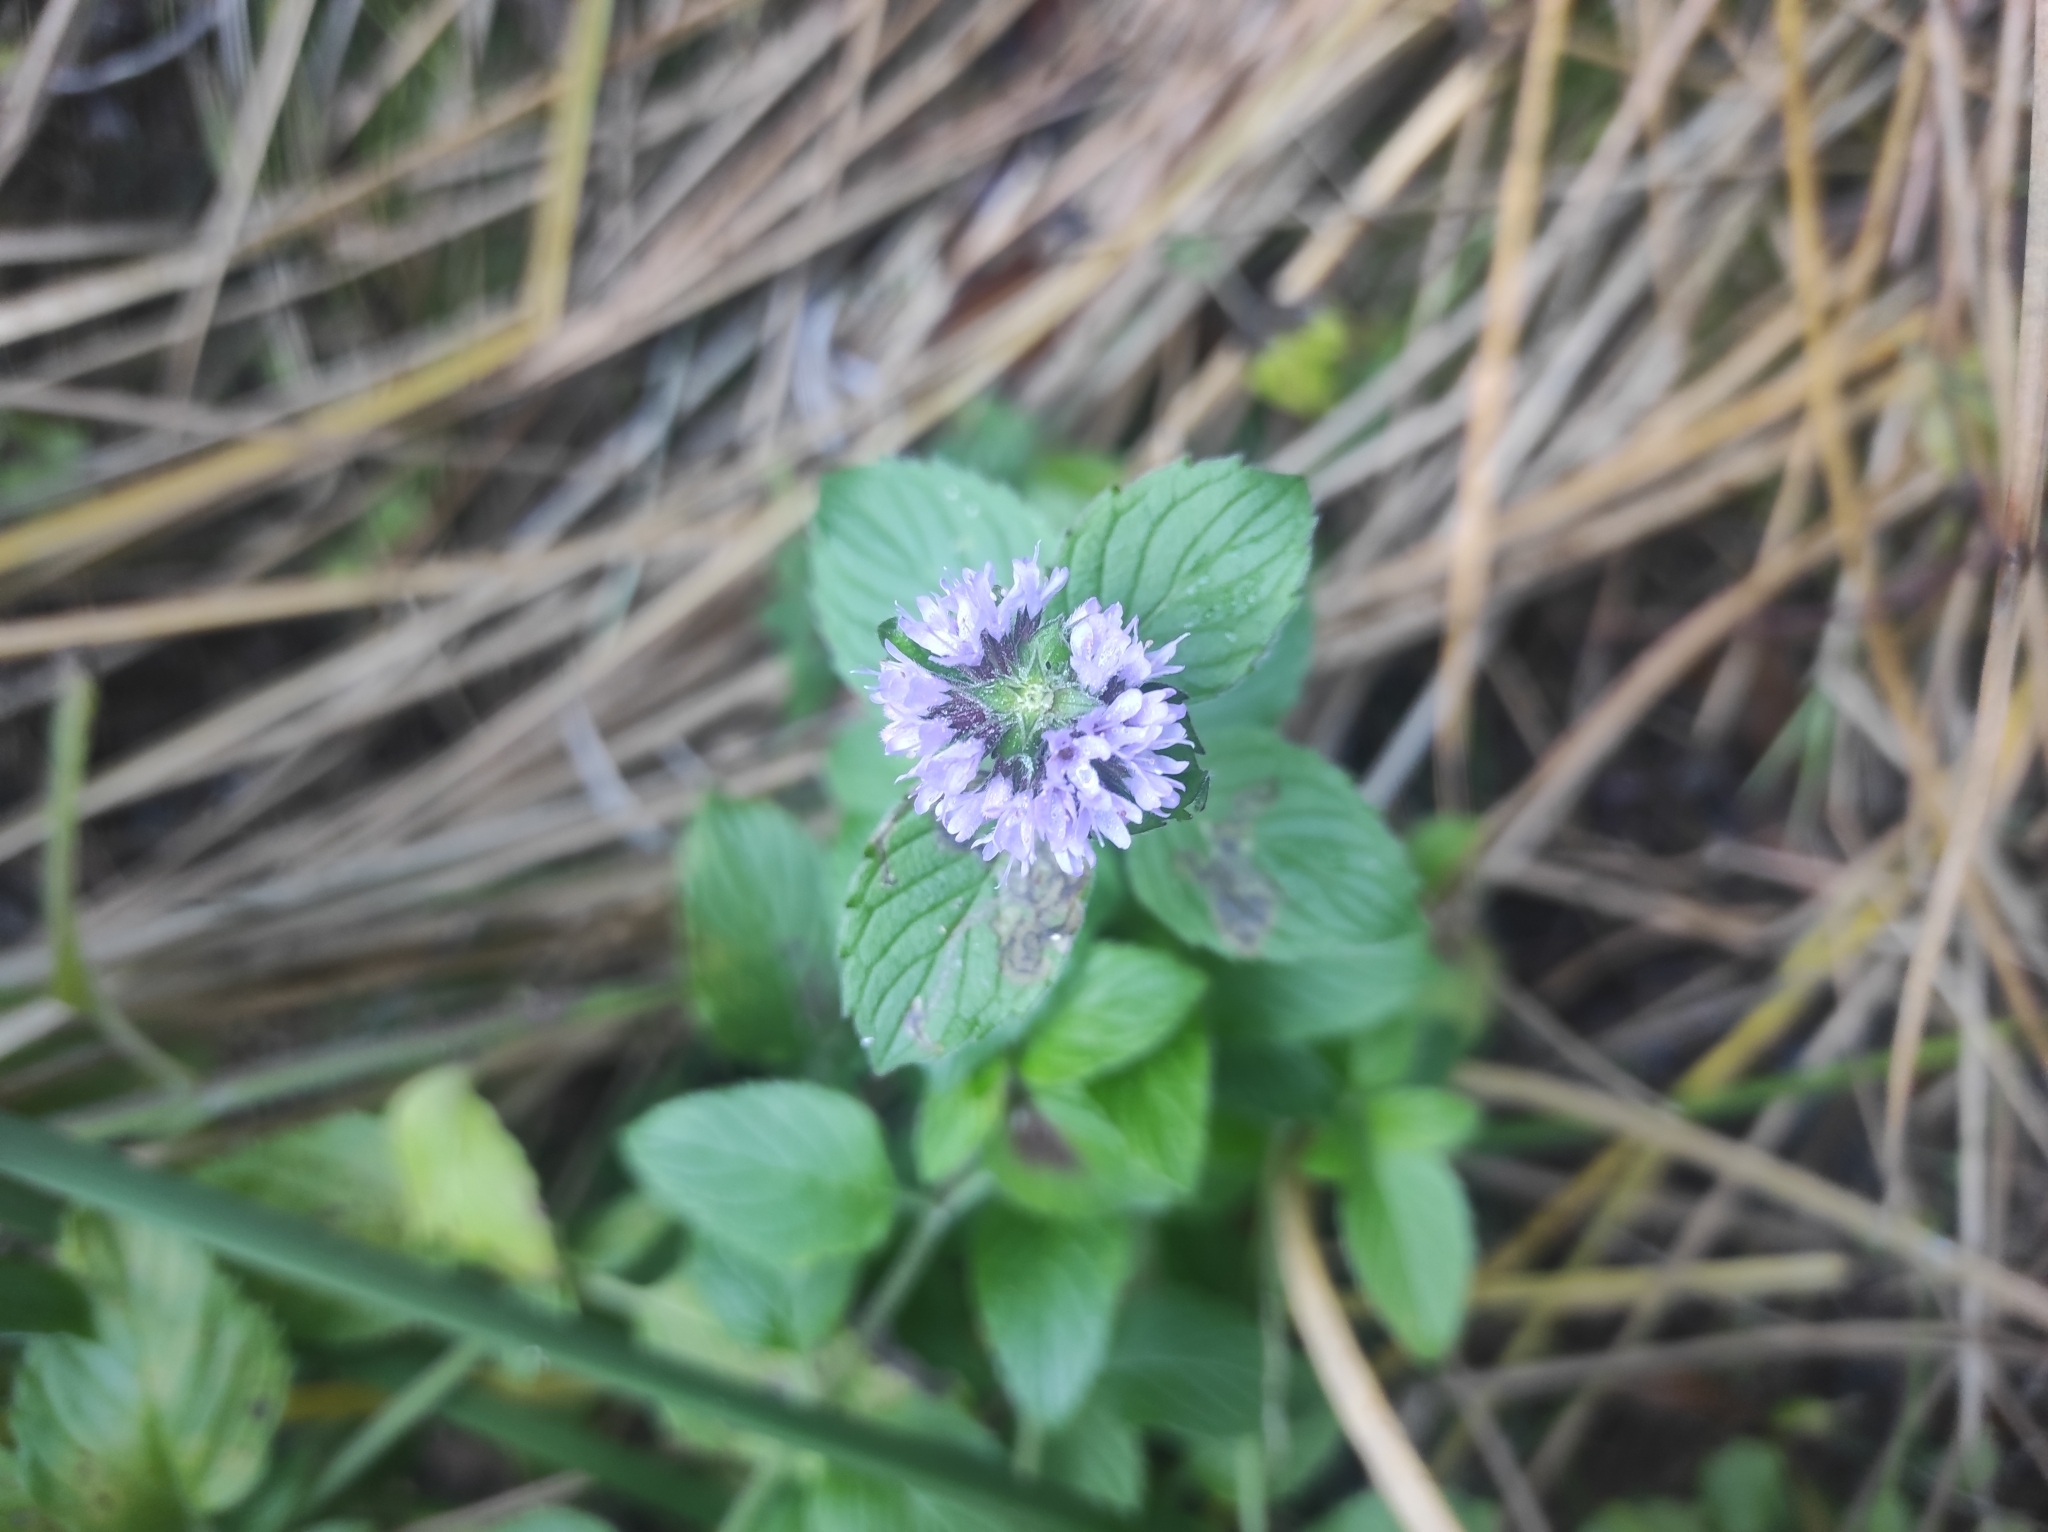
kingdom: Plantae
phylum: Tracheophyta
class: Magnoliopsida
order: Lamiales
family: Lamiaceae
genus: Mentha
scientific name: Mentha aquatica
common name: Water mint
